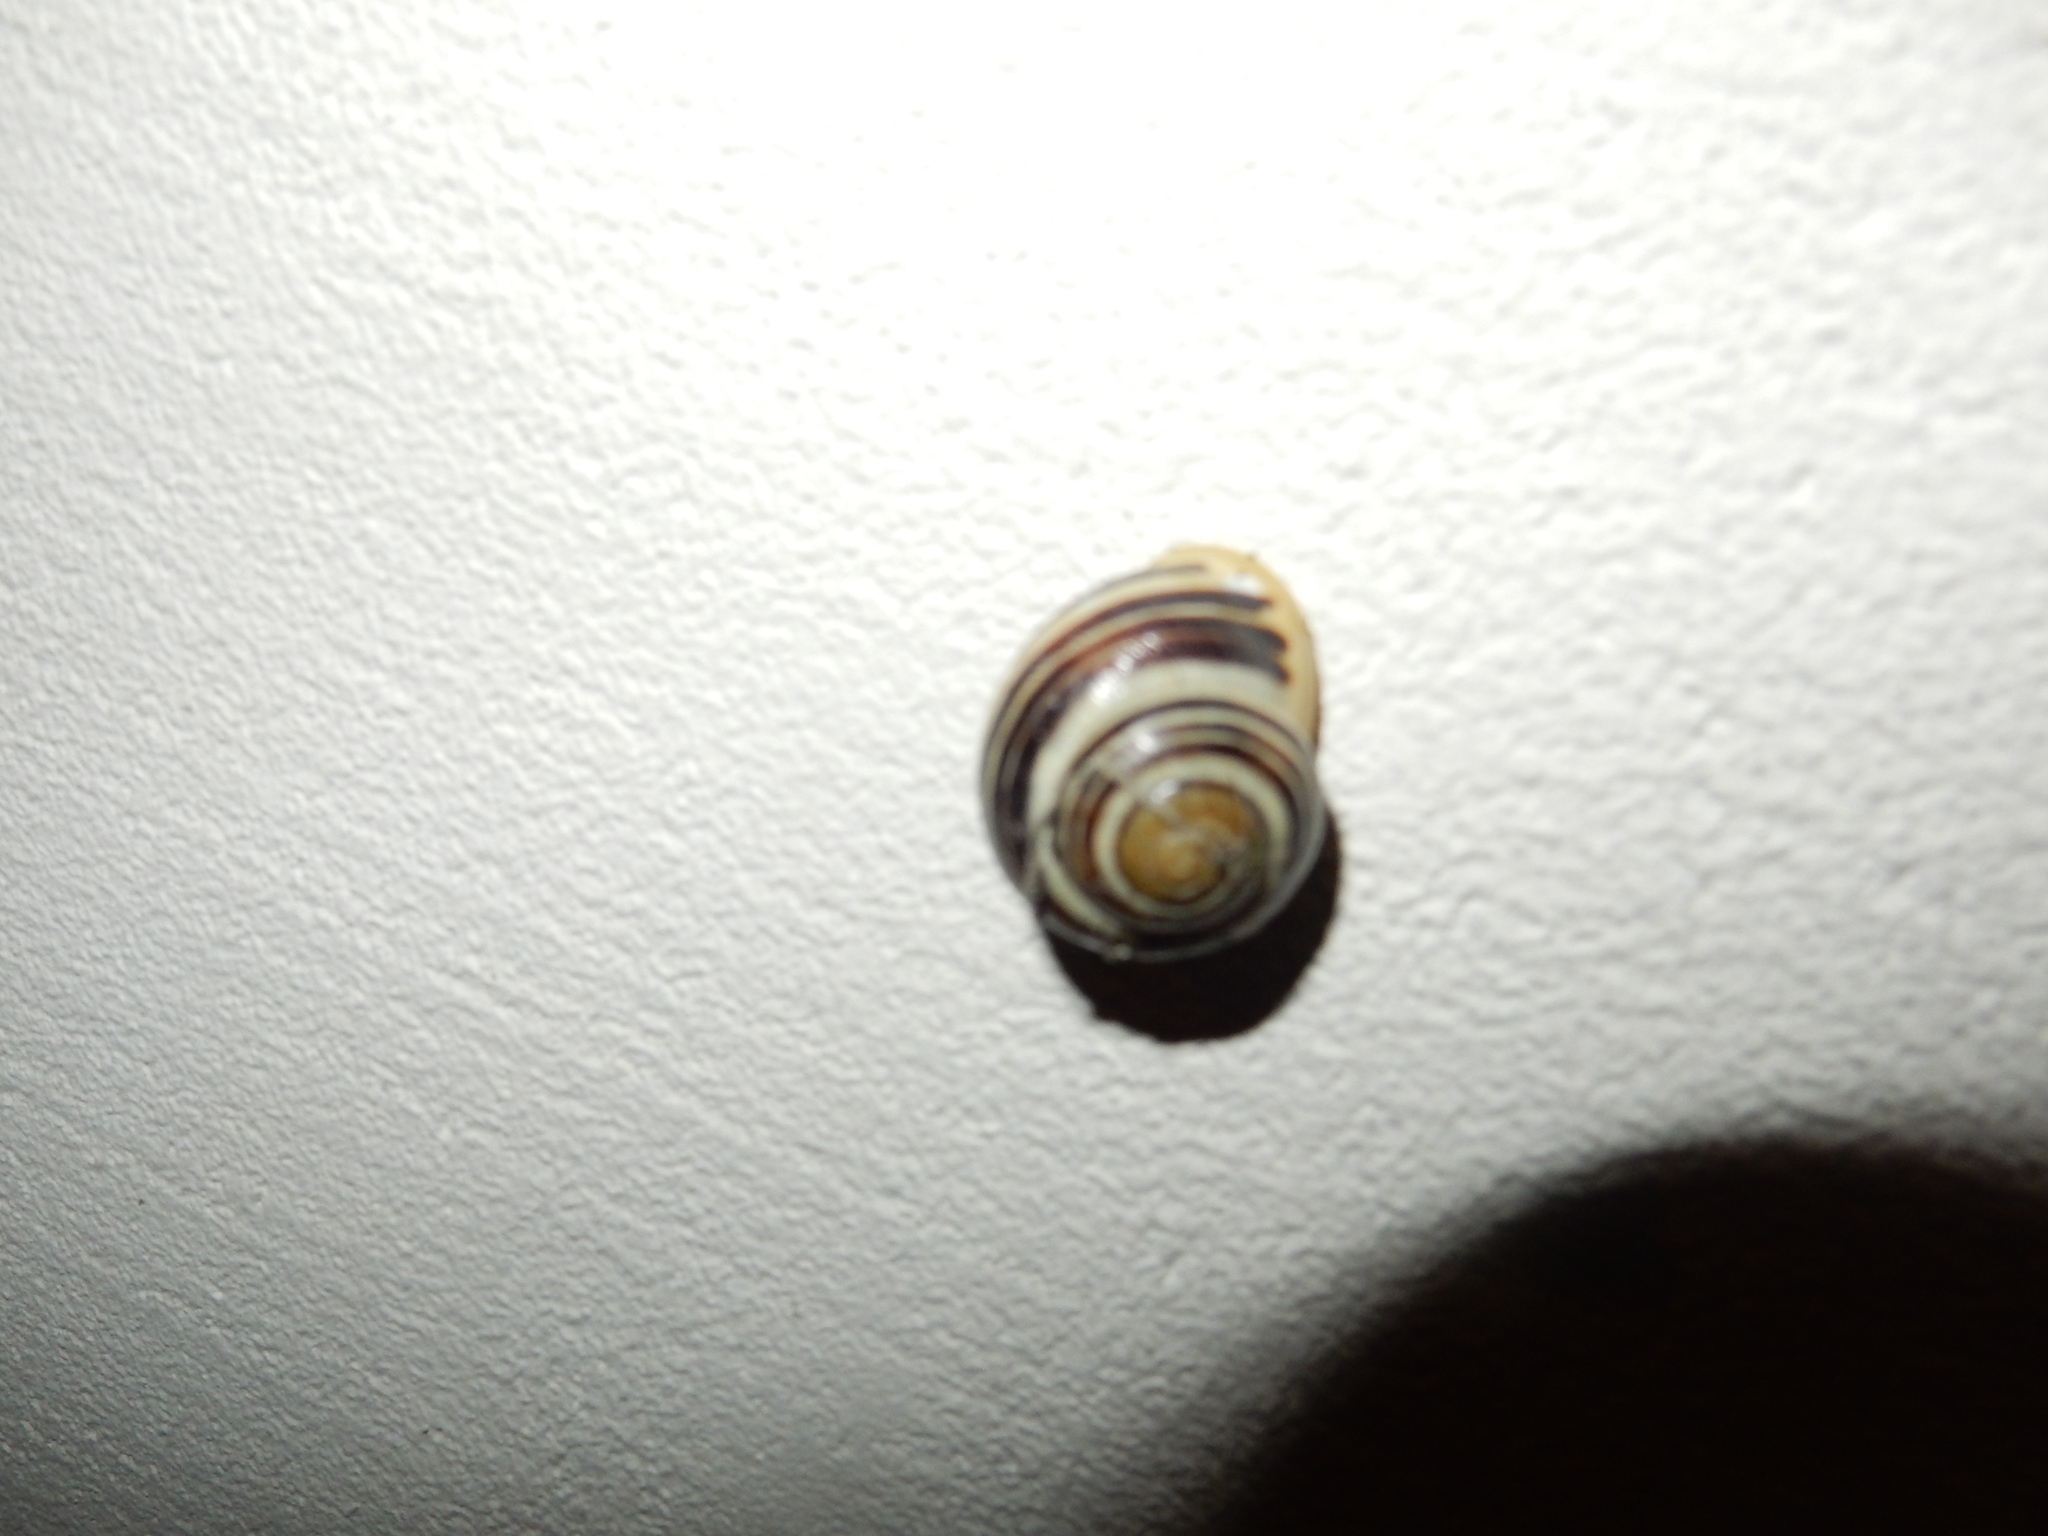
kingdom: Animalia
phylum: Mollusca
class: Gastropoda
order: Stylommatophora
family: Helicidae
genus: Cepaea
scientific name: Cepaea hortensis
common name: White-lip gardensnail
